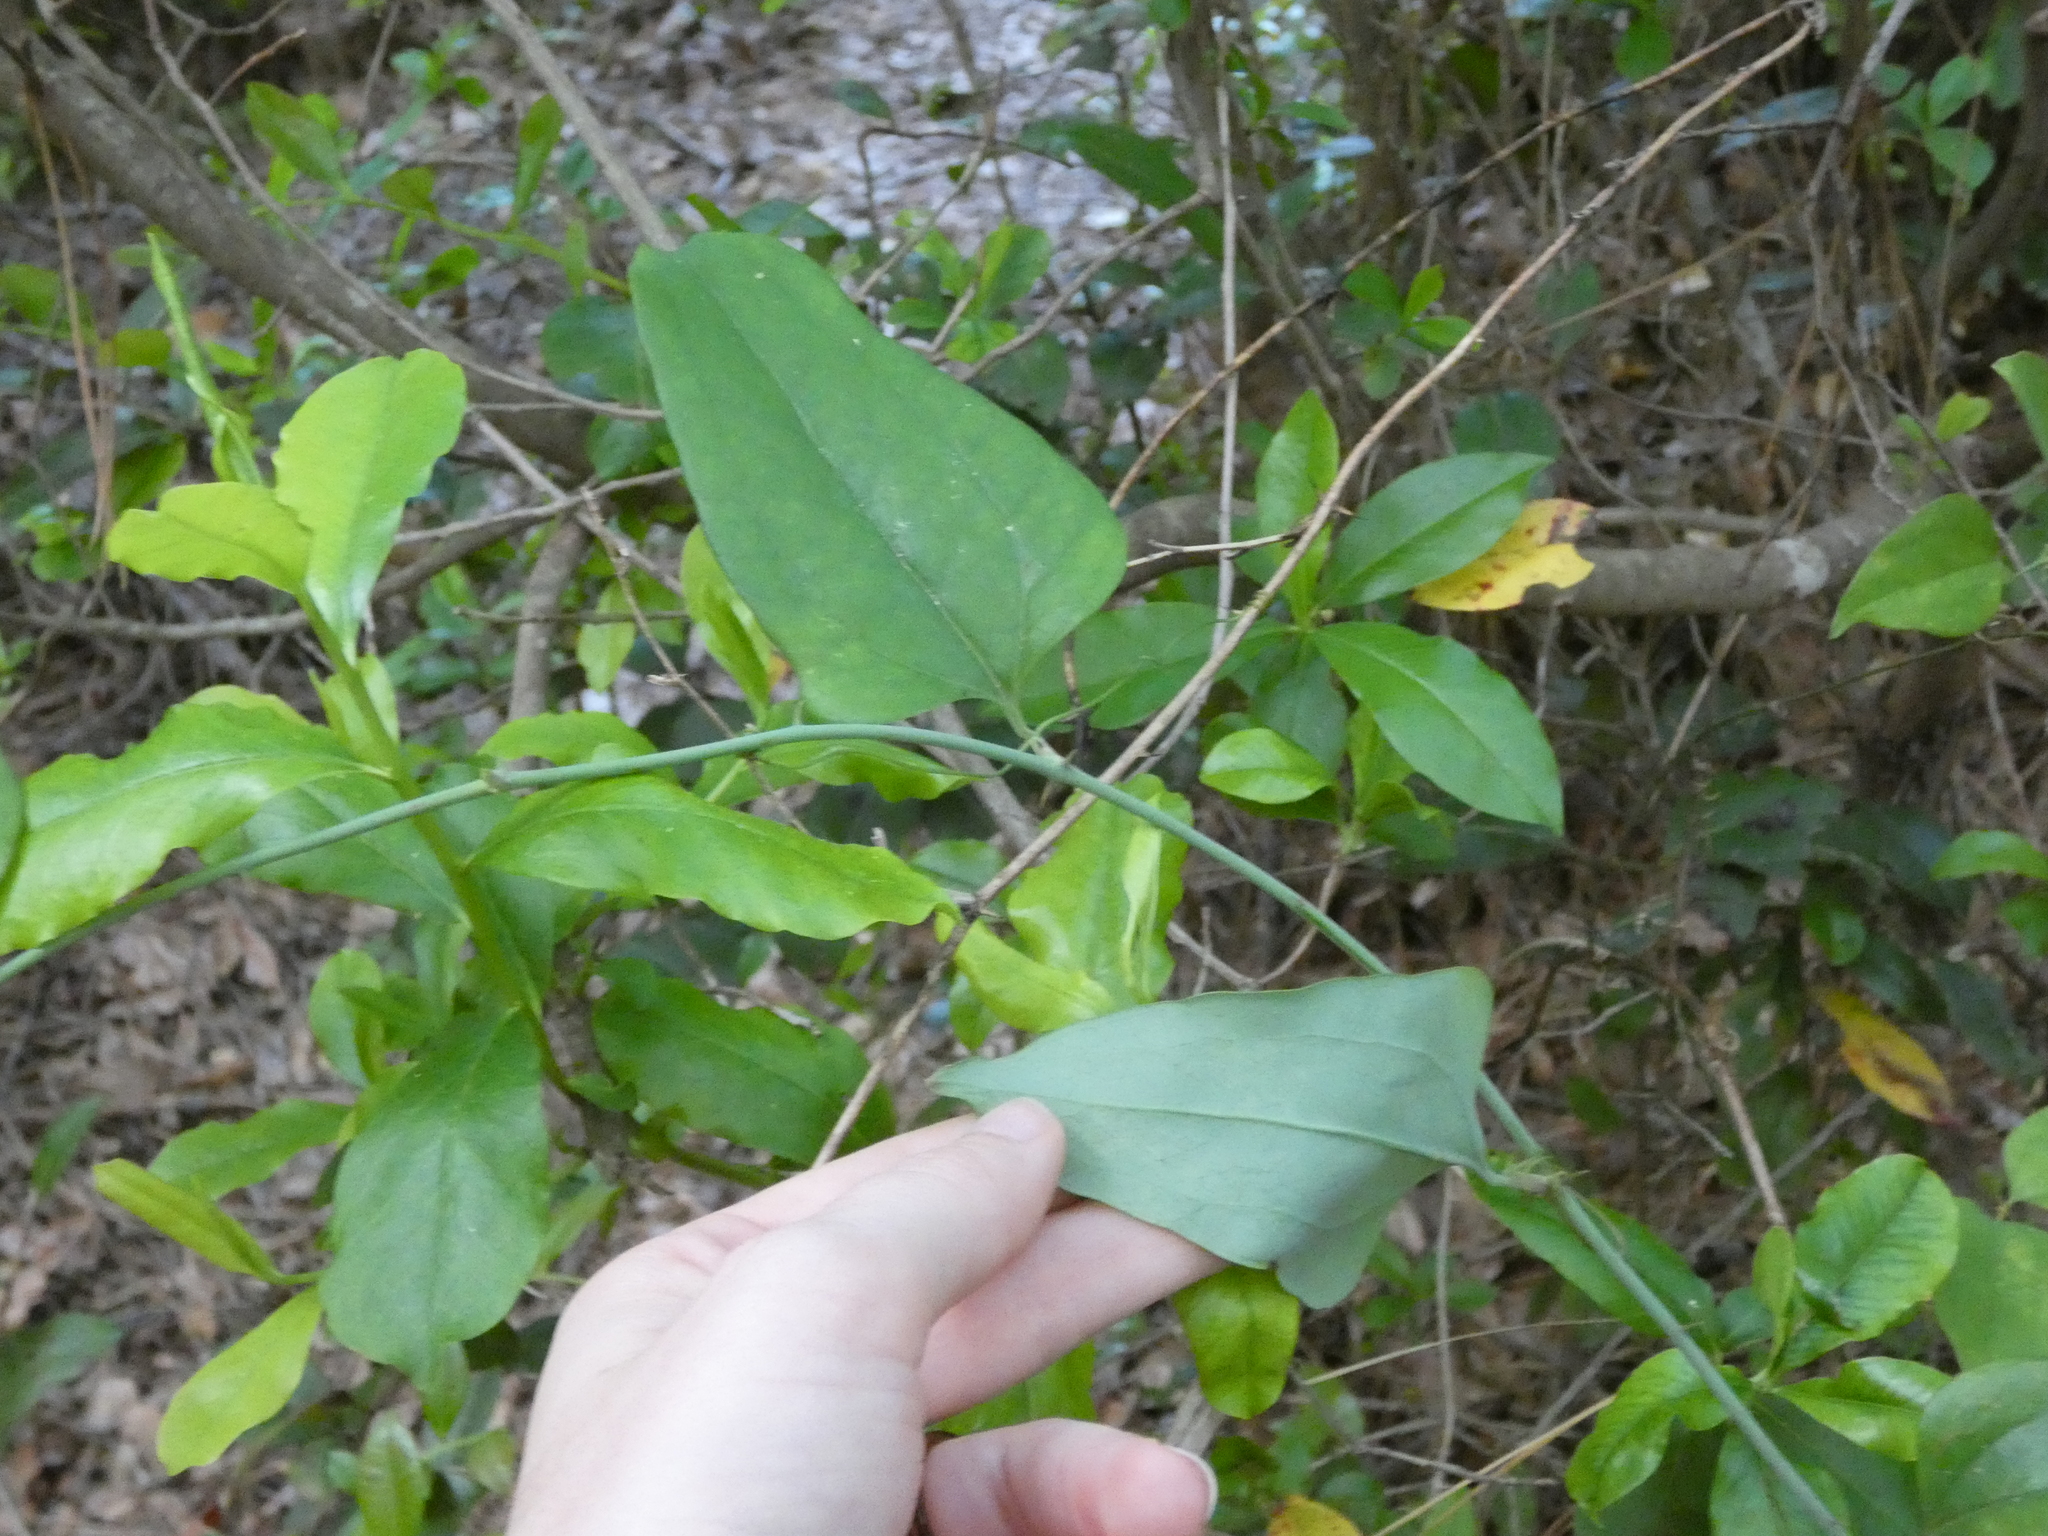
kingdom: Plantae
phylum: Tracheophyta
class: Liliopsida
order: Liliales
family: Smilacaceae
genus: Smilax
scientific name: Smilax glauca
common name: Cat greenbrier
